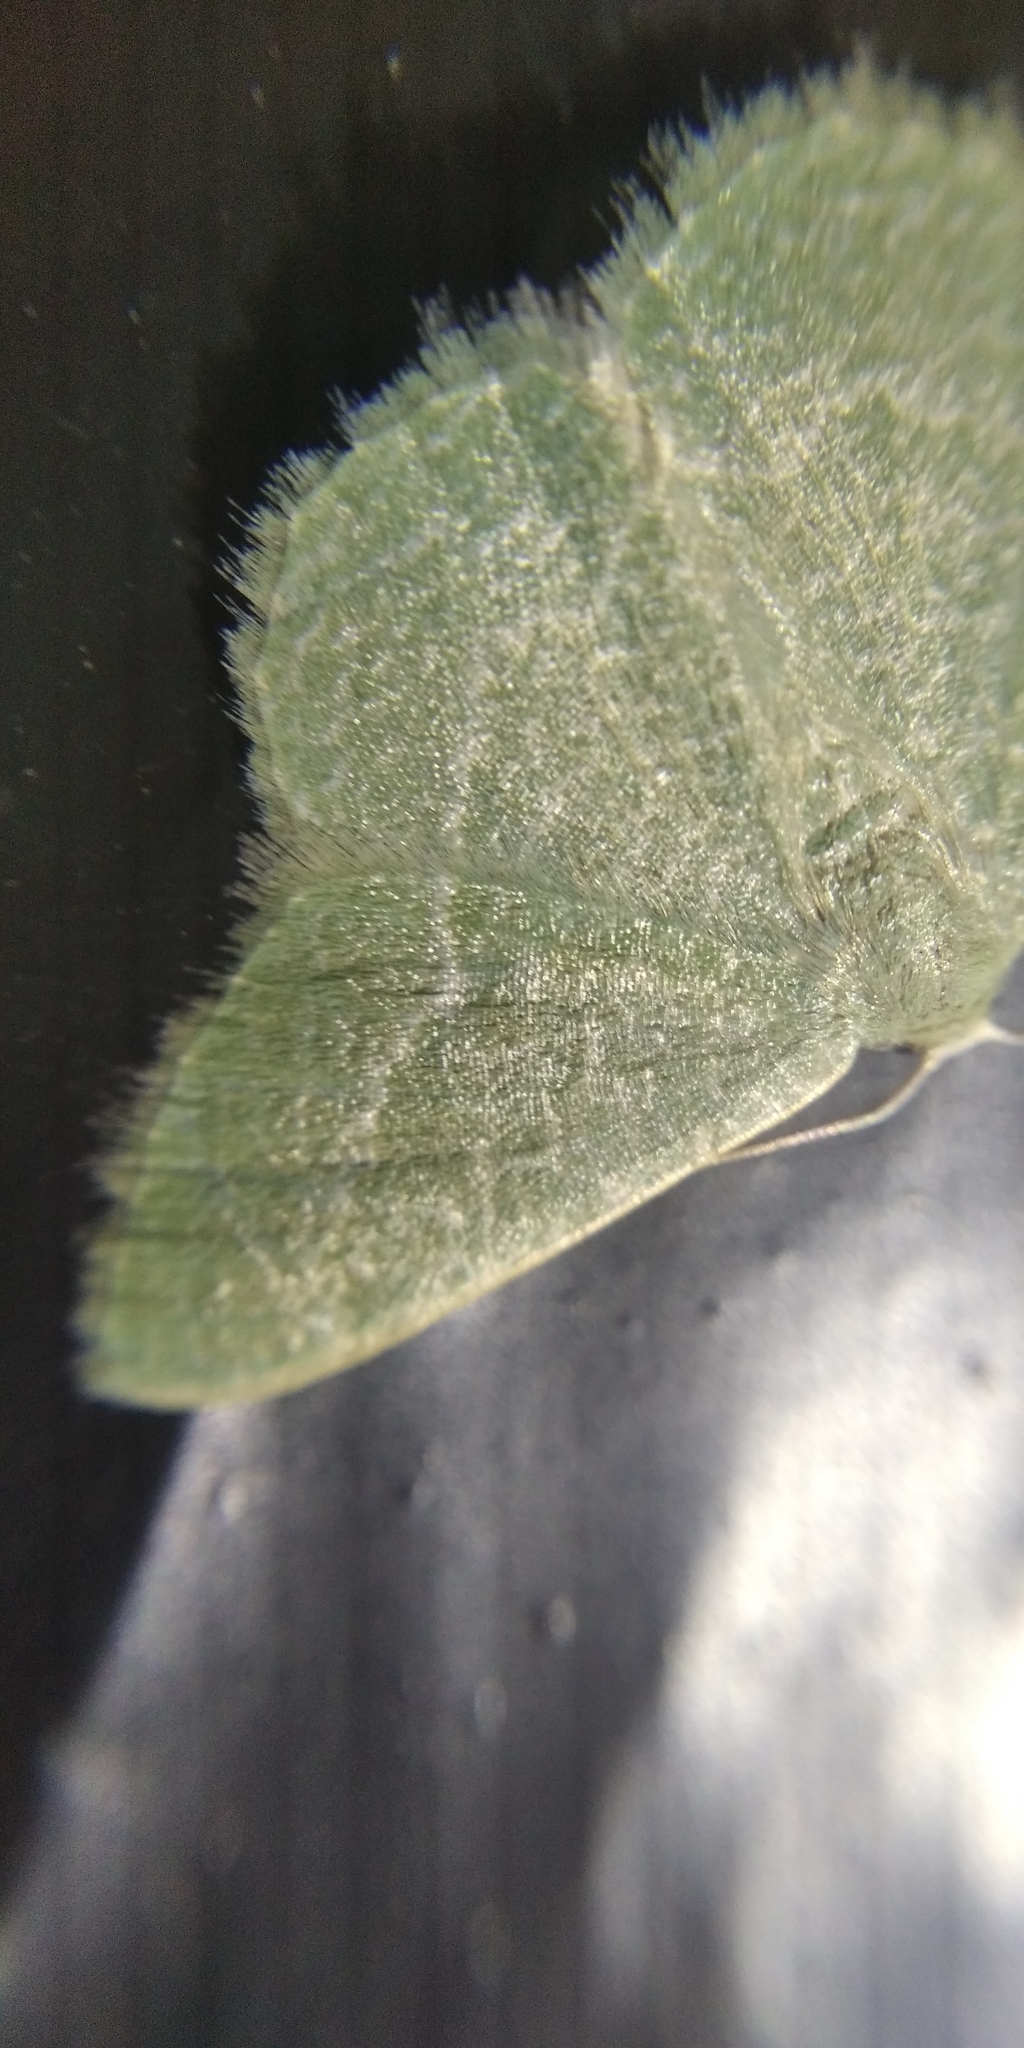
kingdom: Animalia
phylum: Arthropoda
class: Insecta
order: Lepidoptera
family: Geometridae
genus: Chlorissa
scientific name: Chlorissa etruscaria
